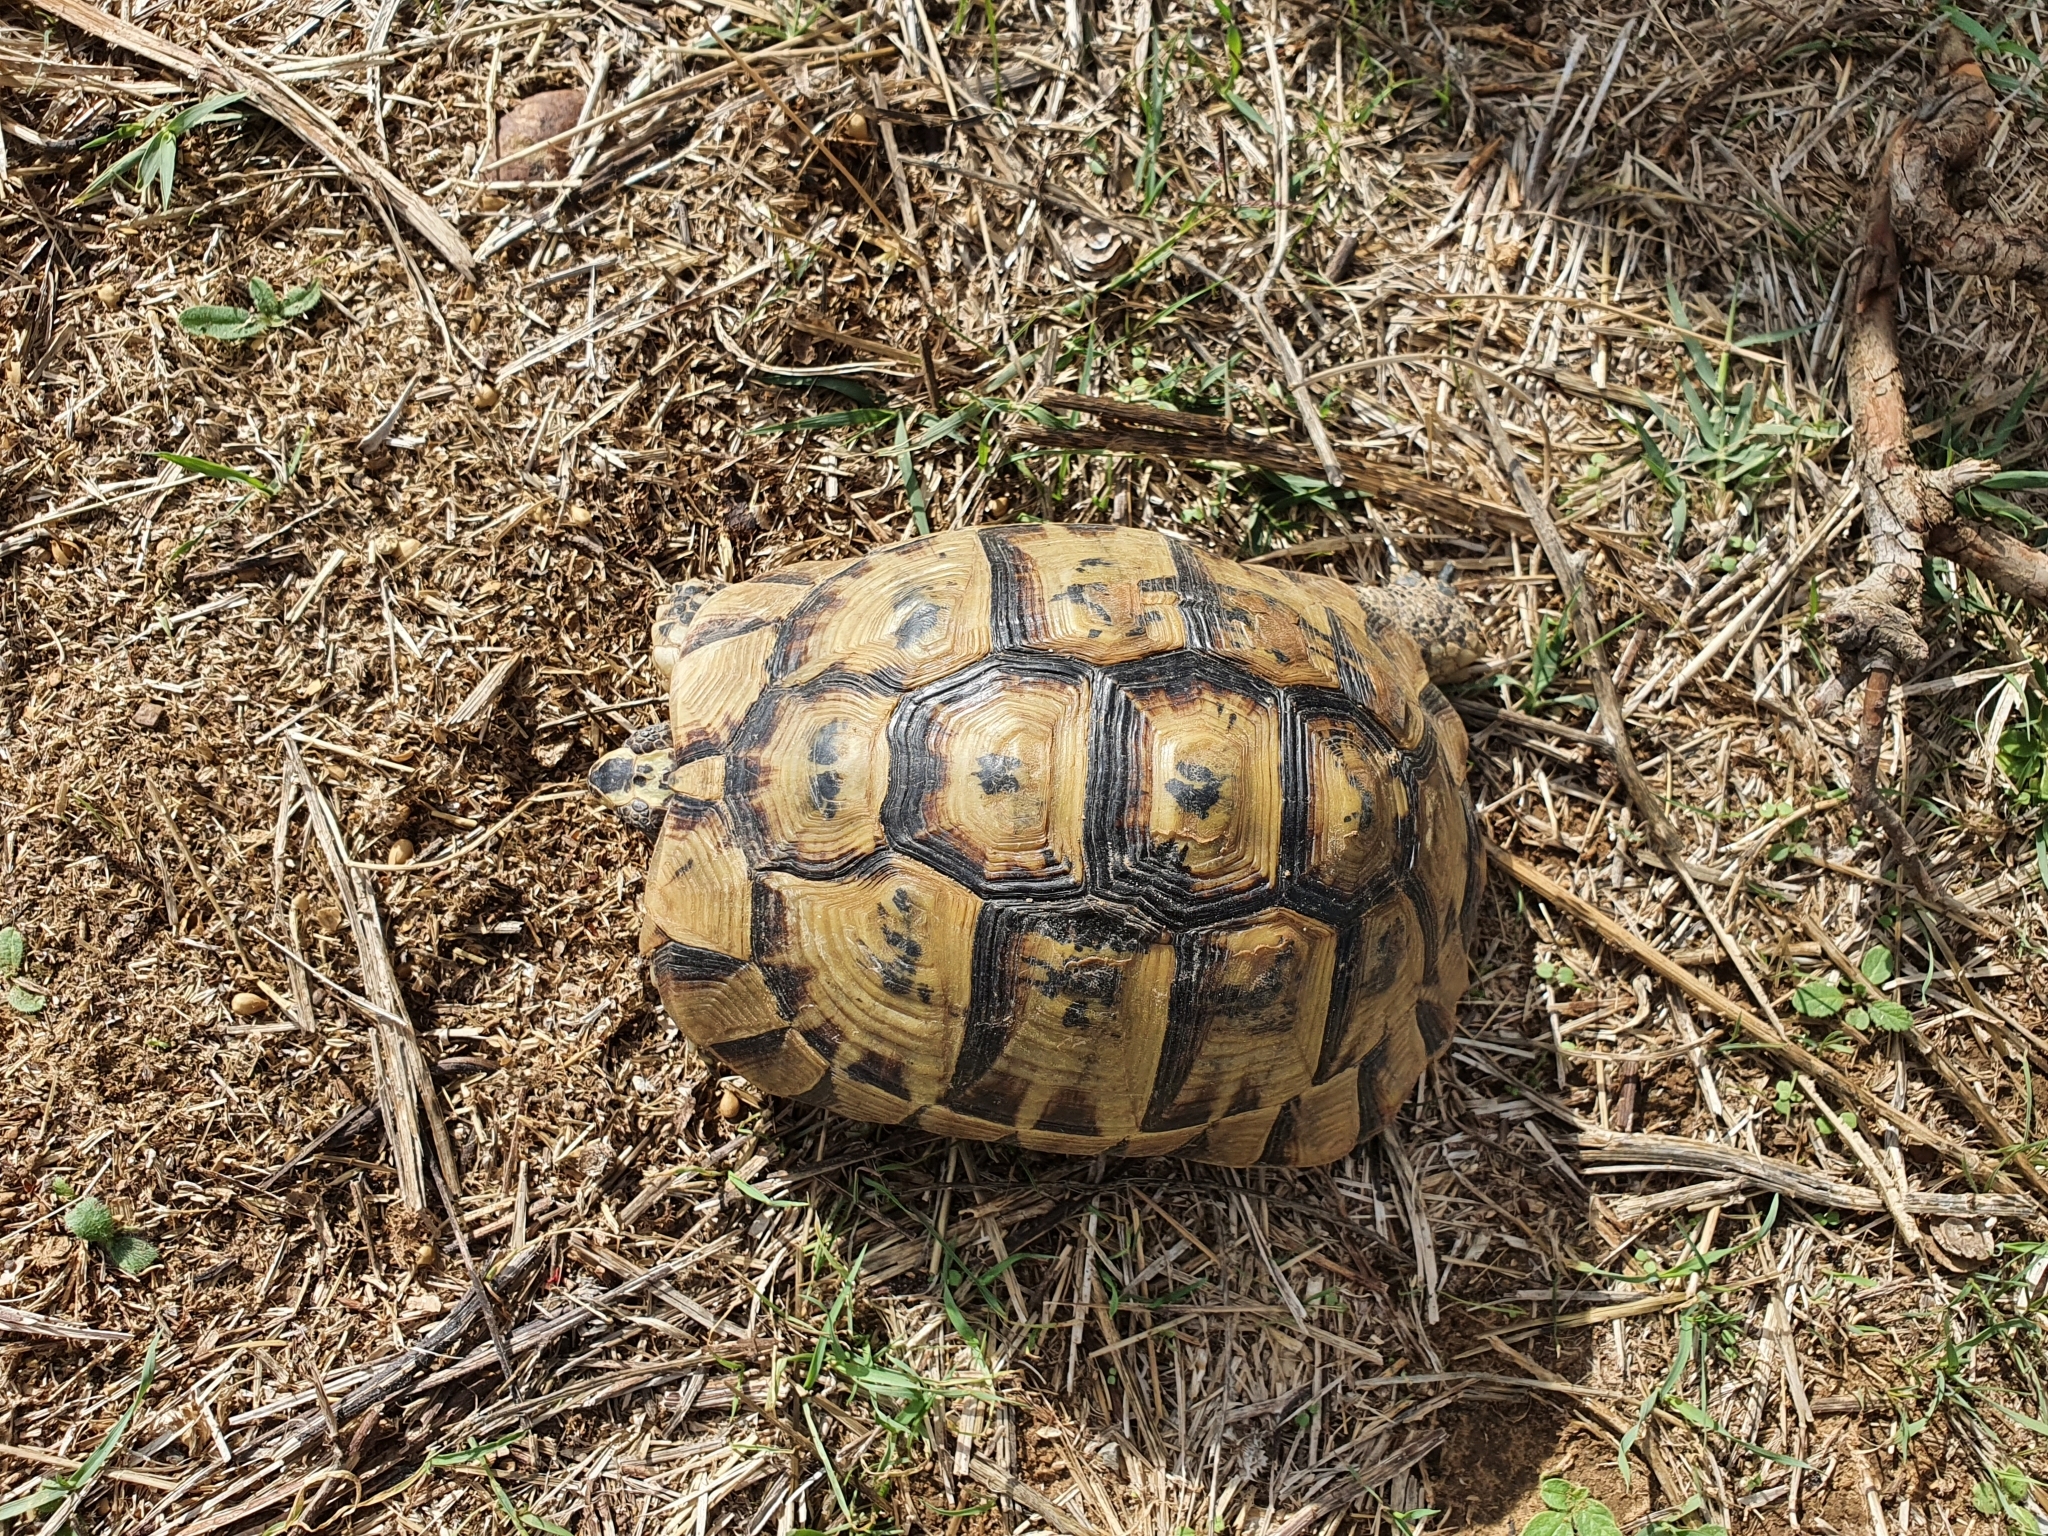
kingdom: Animalia
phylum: Chordata
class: Testudines
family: Testudinidae
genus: Testudo
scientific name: Testudo graeca
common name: Common tortoise
